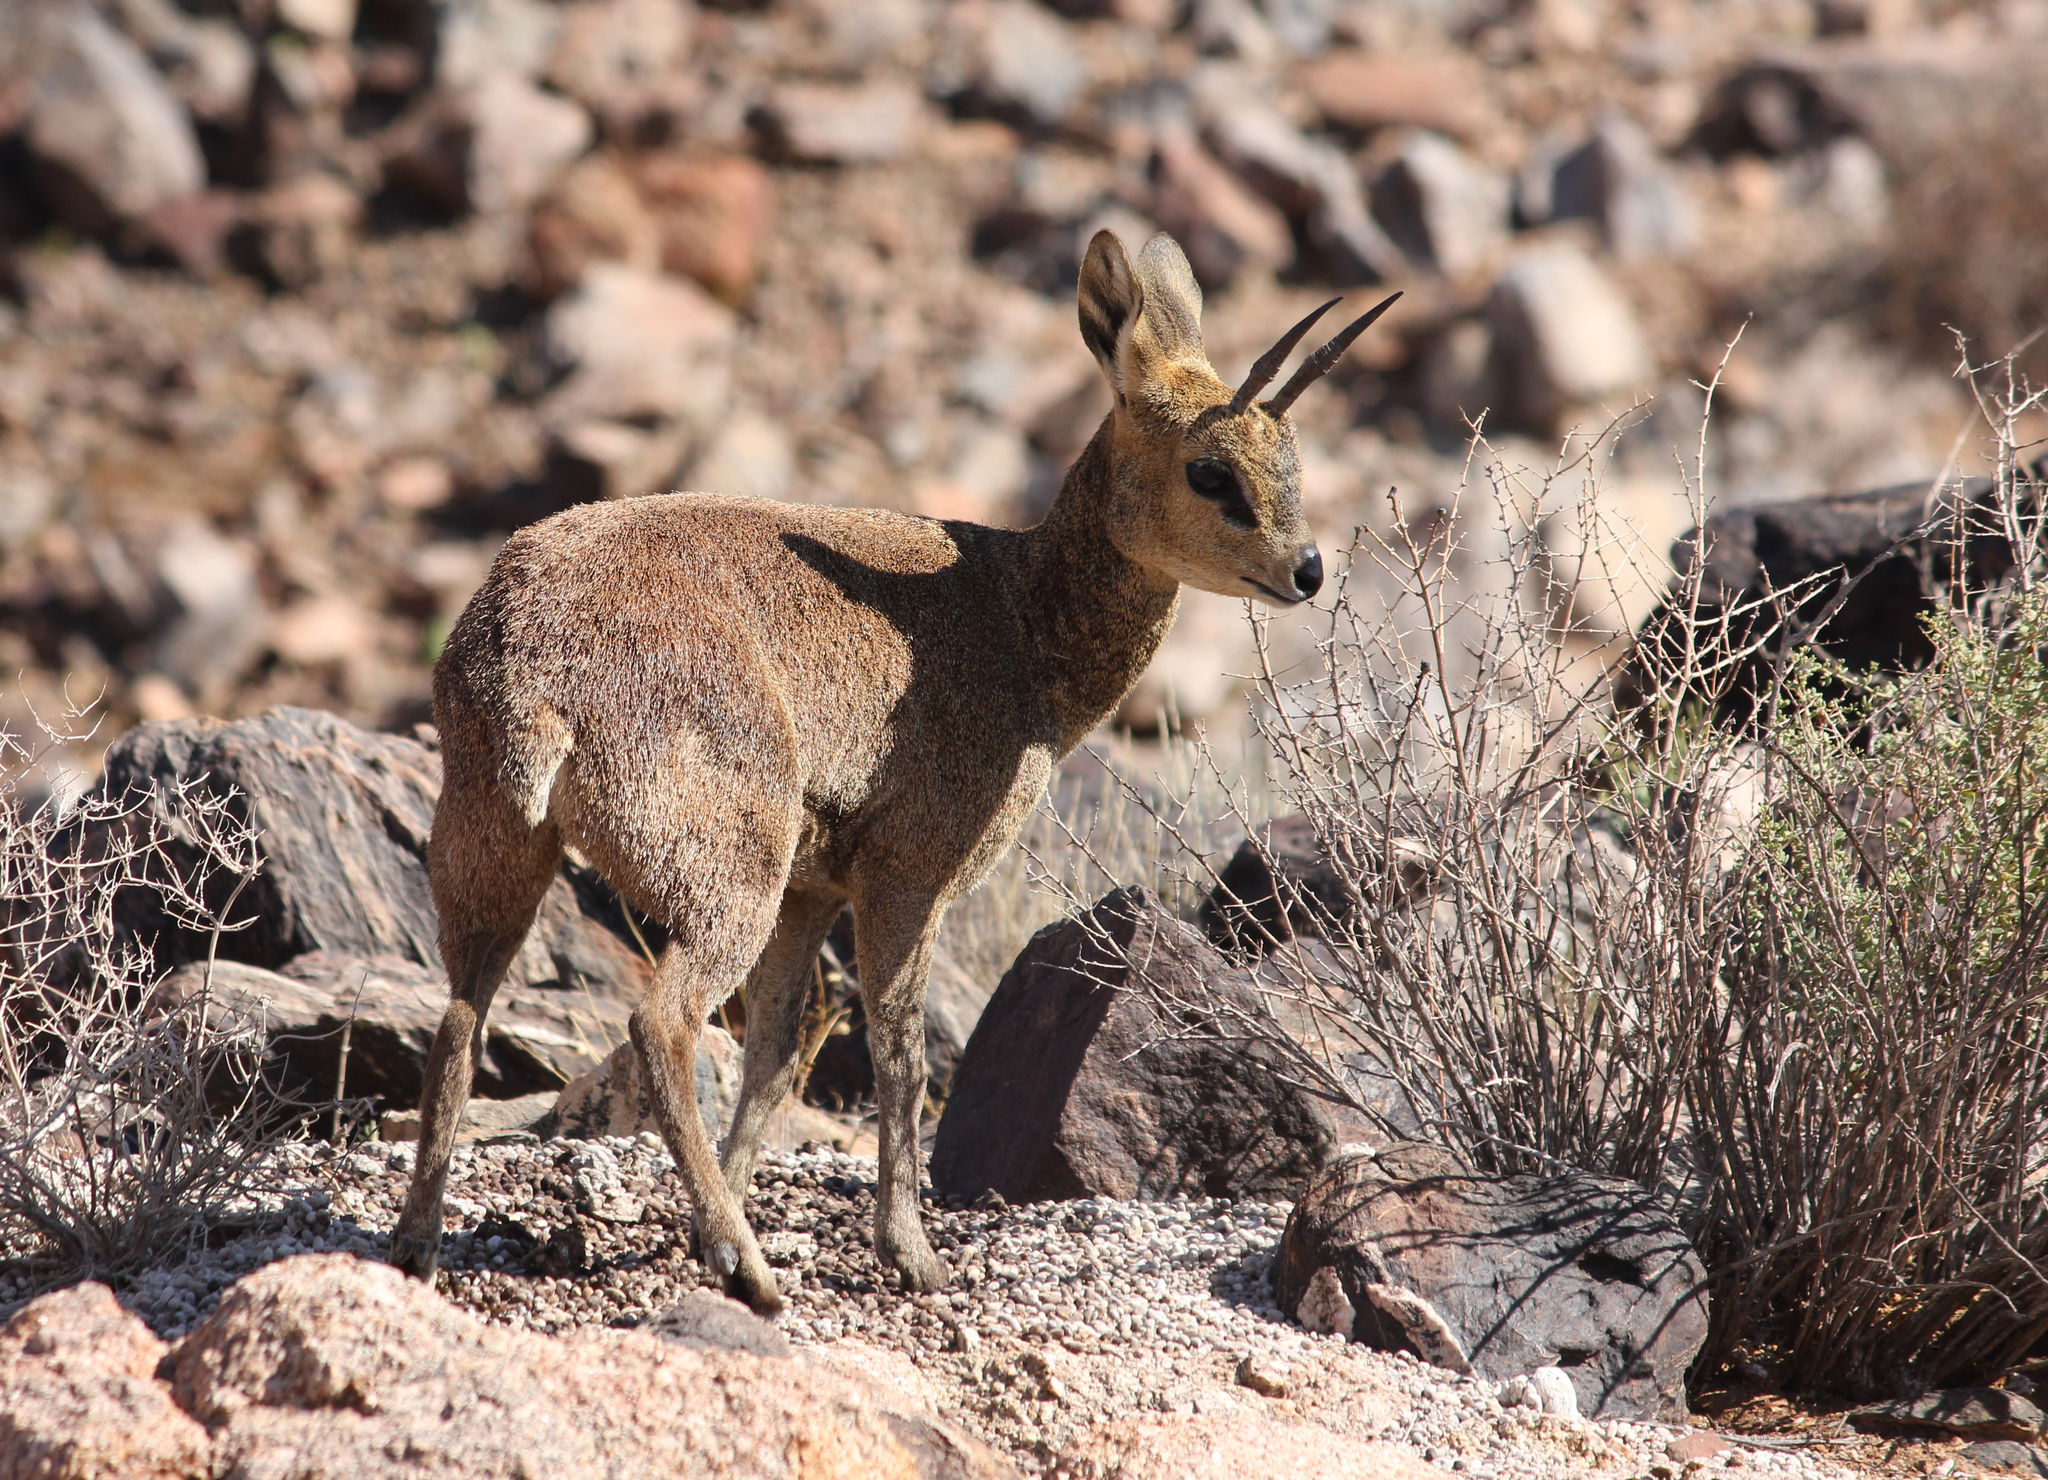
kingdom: Animalia
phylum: Chordata
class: Mammalia
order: Artiodactyla
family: Bovidae
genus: Oreotragus
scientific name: Oreotragus oreotragus
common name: Klipspringer
